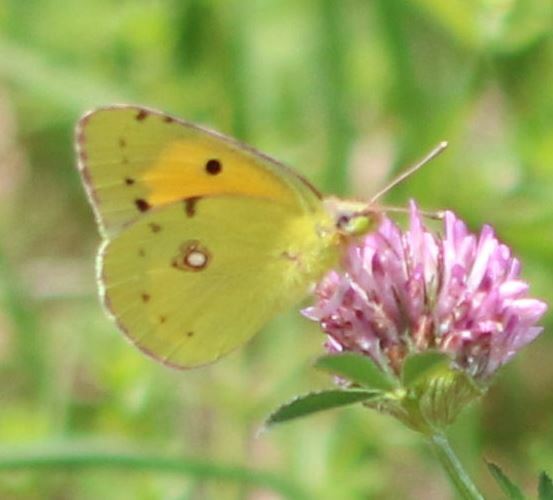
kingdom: Animalia
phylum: Arthropoda
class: Insecta
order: Lepidoptera
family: Pieridae
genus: Colias
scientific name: Colias croceus
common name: Clouded yellow
